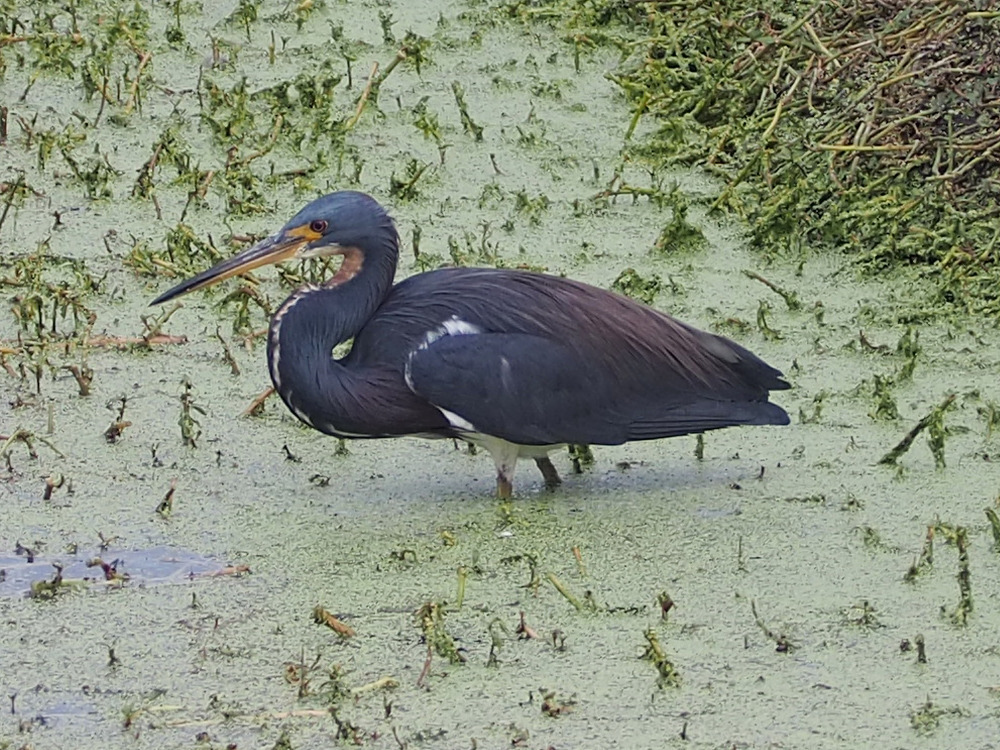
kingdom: Animalia
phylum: Chordata
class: Aves
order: Pelecaniformes
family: Ardeidae
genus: Egretta
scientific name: Egretta tricolor
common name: Tricolored heron
